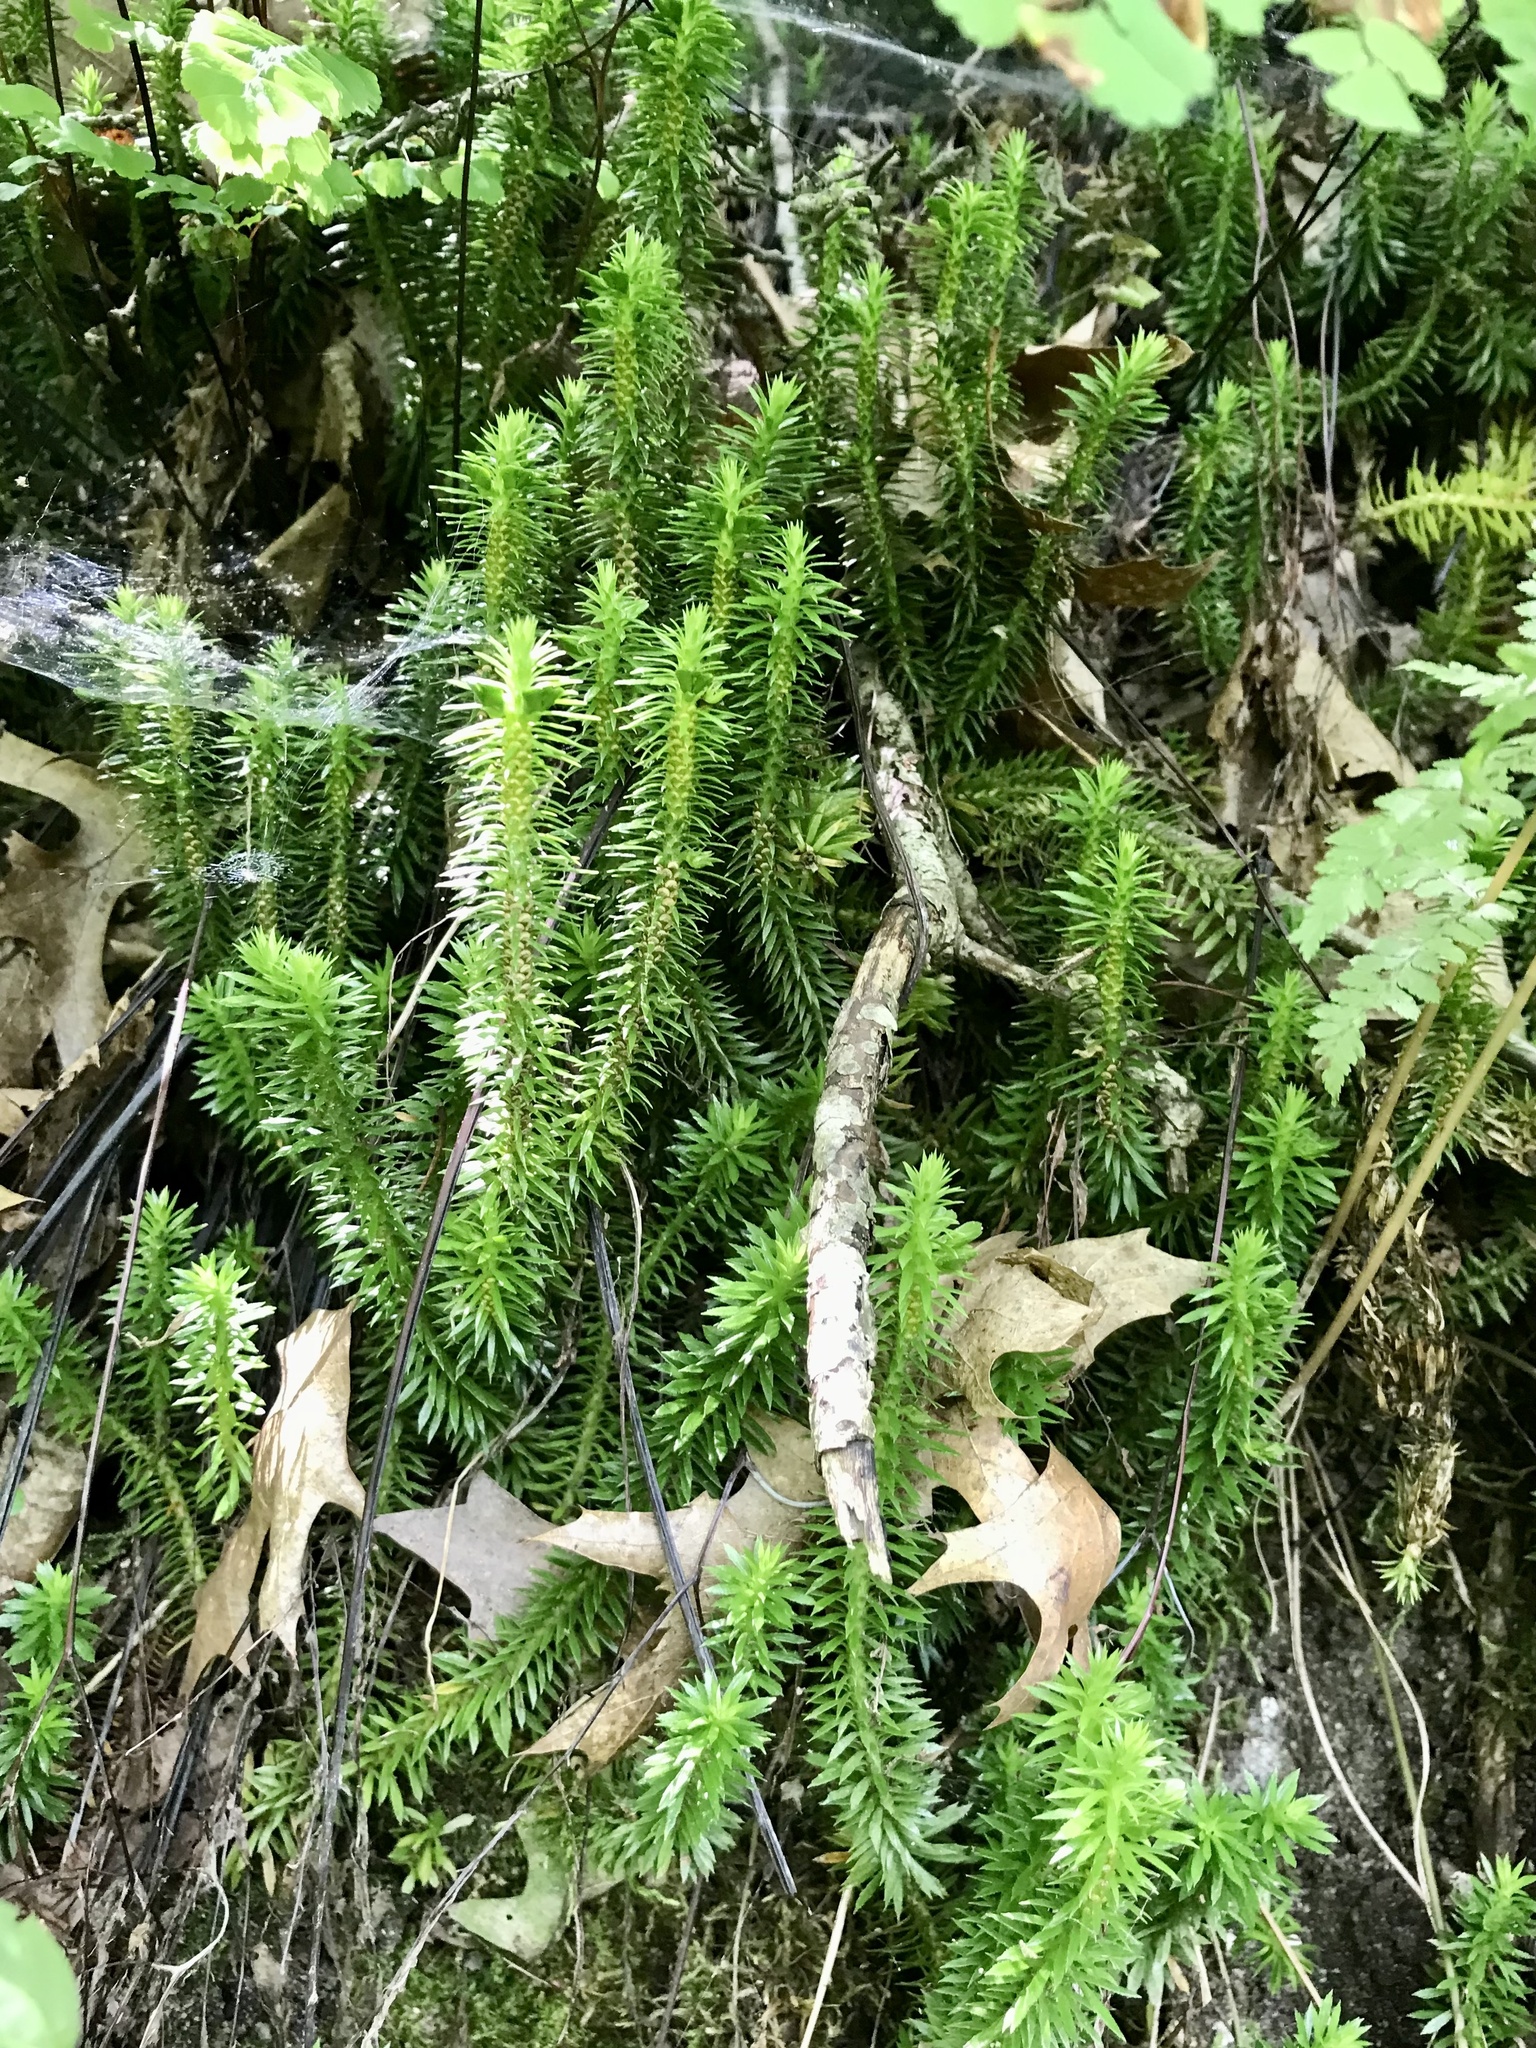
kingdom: Plantae
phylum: Tracheophyta
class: Lycopodiopsida
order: Lycopodiales
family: Lycopodiaceae
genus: Huperzia
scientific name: Huperzia lucidula
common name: Shining clubmoss
